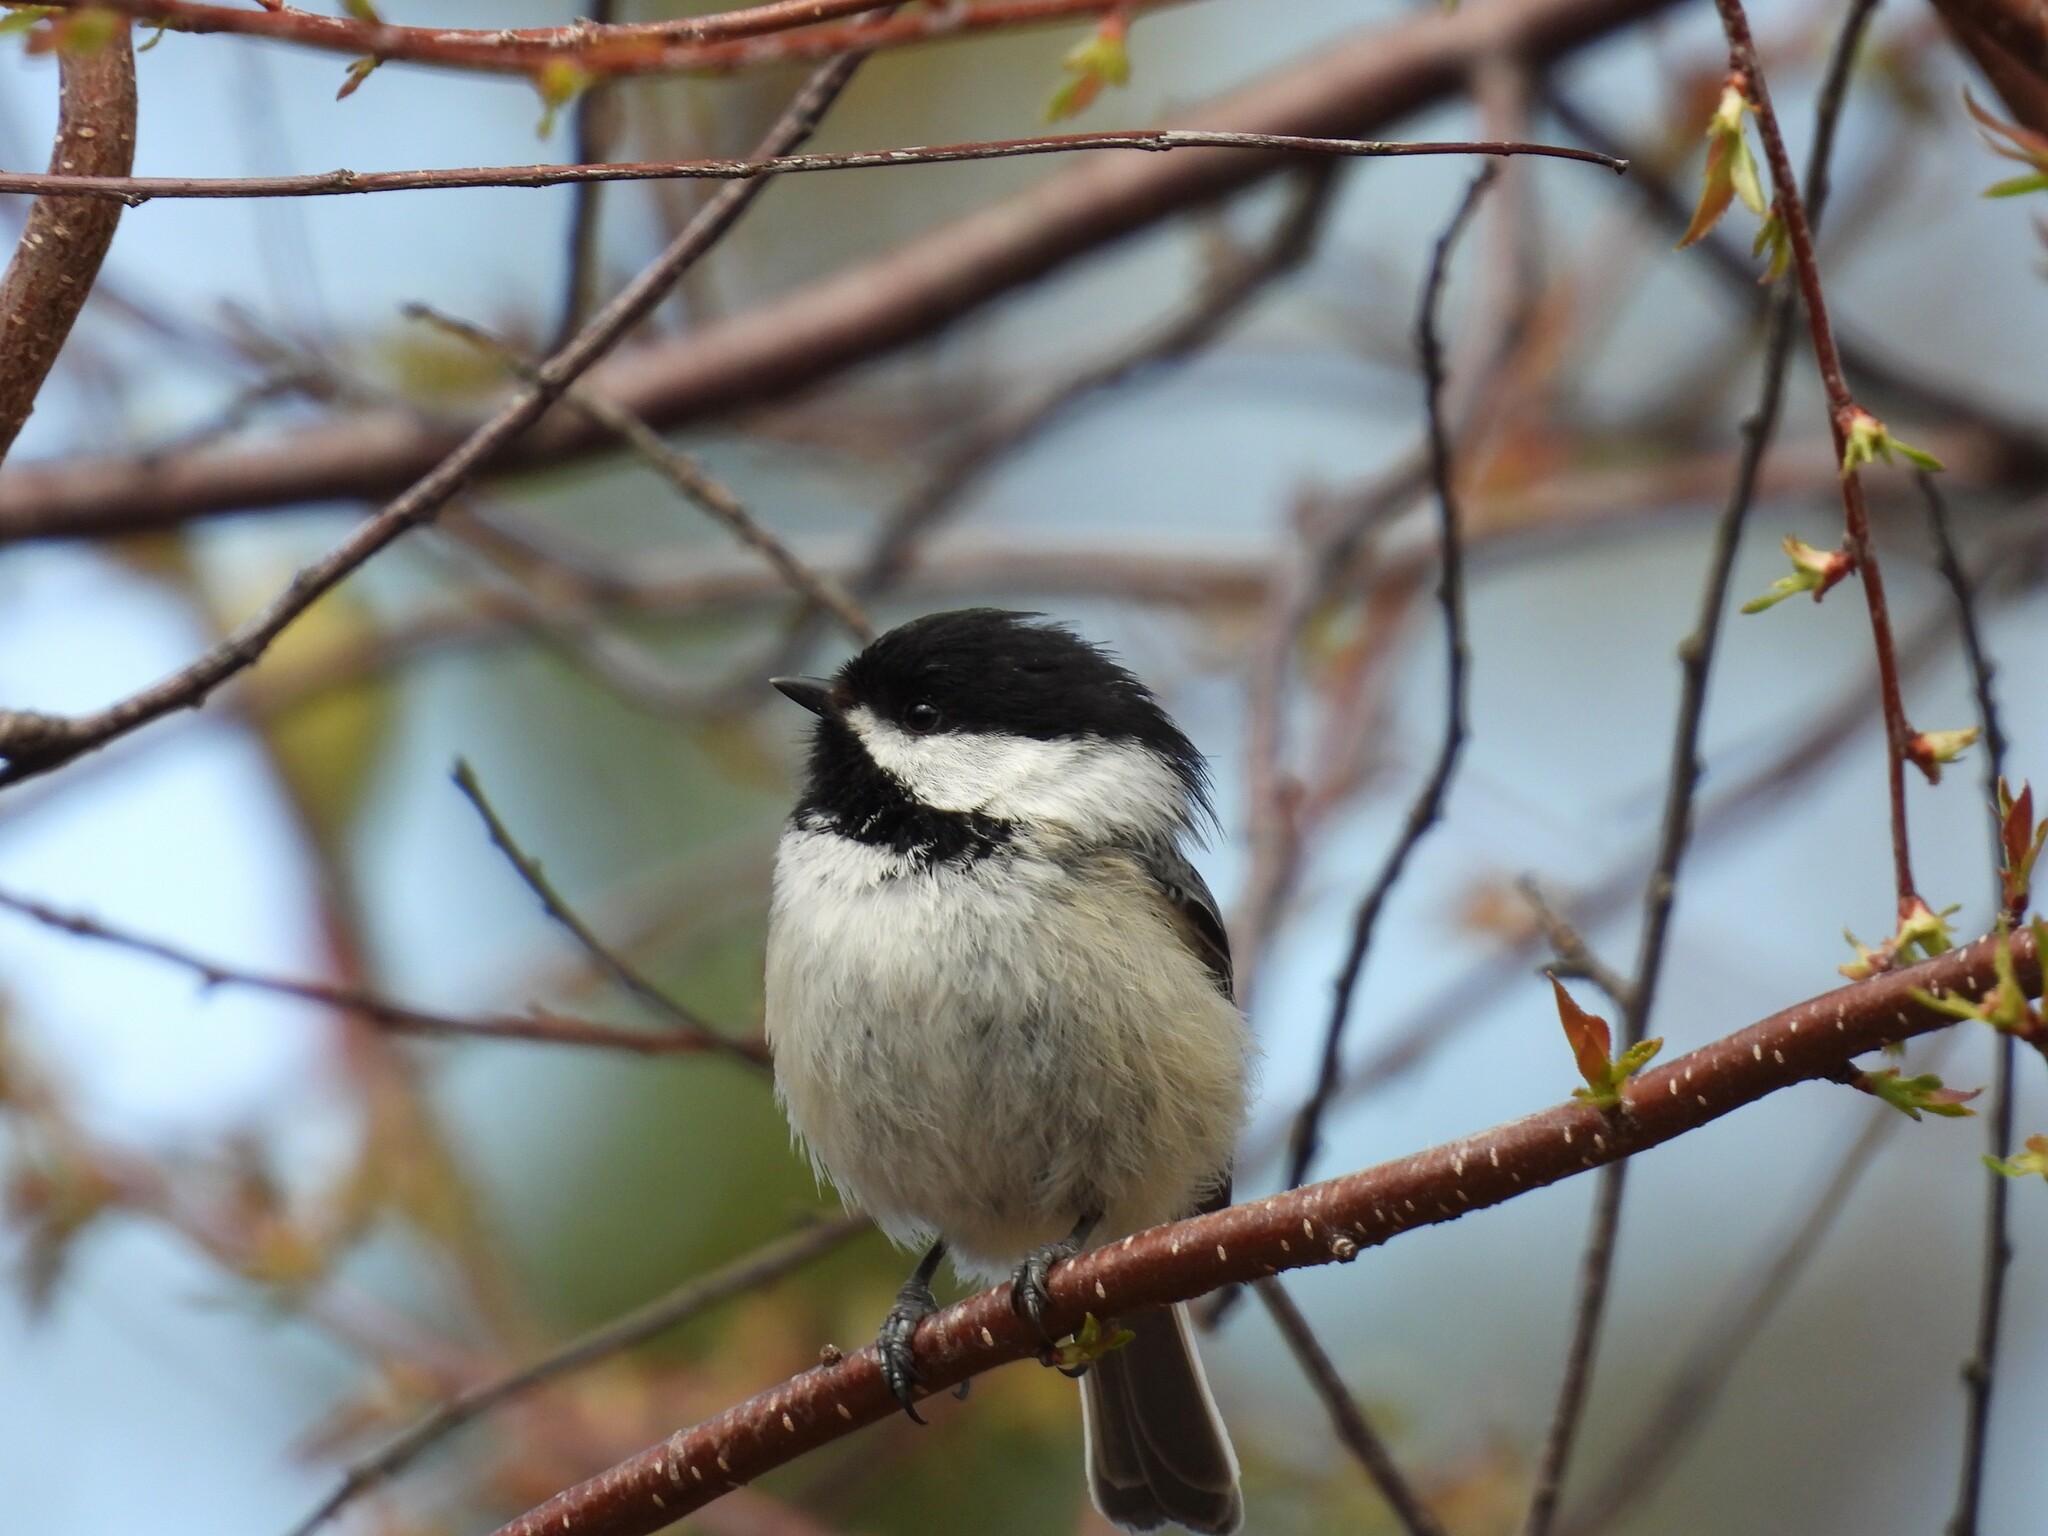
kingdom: Animalia
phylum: Chordata
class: Aves
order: Passeriformes
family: Paridae
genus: Poecile
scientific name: Poecile atricapillus
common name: Black-capped chickadee
